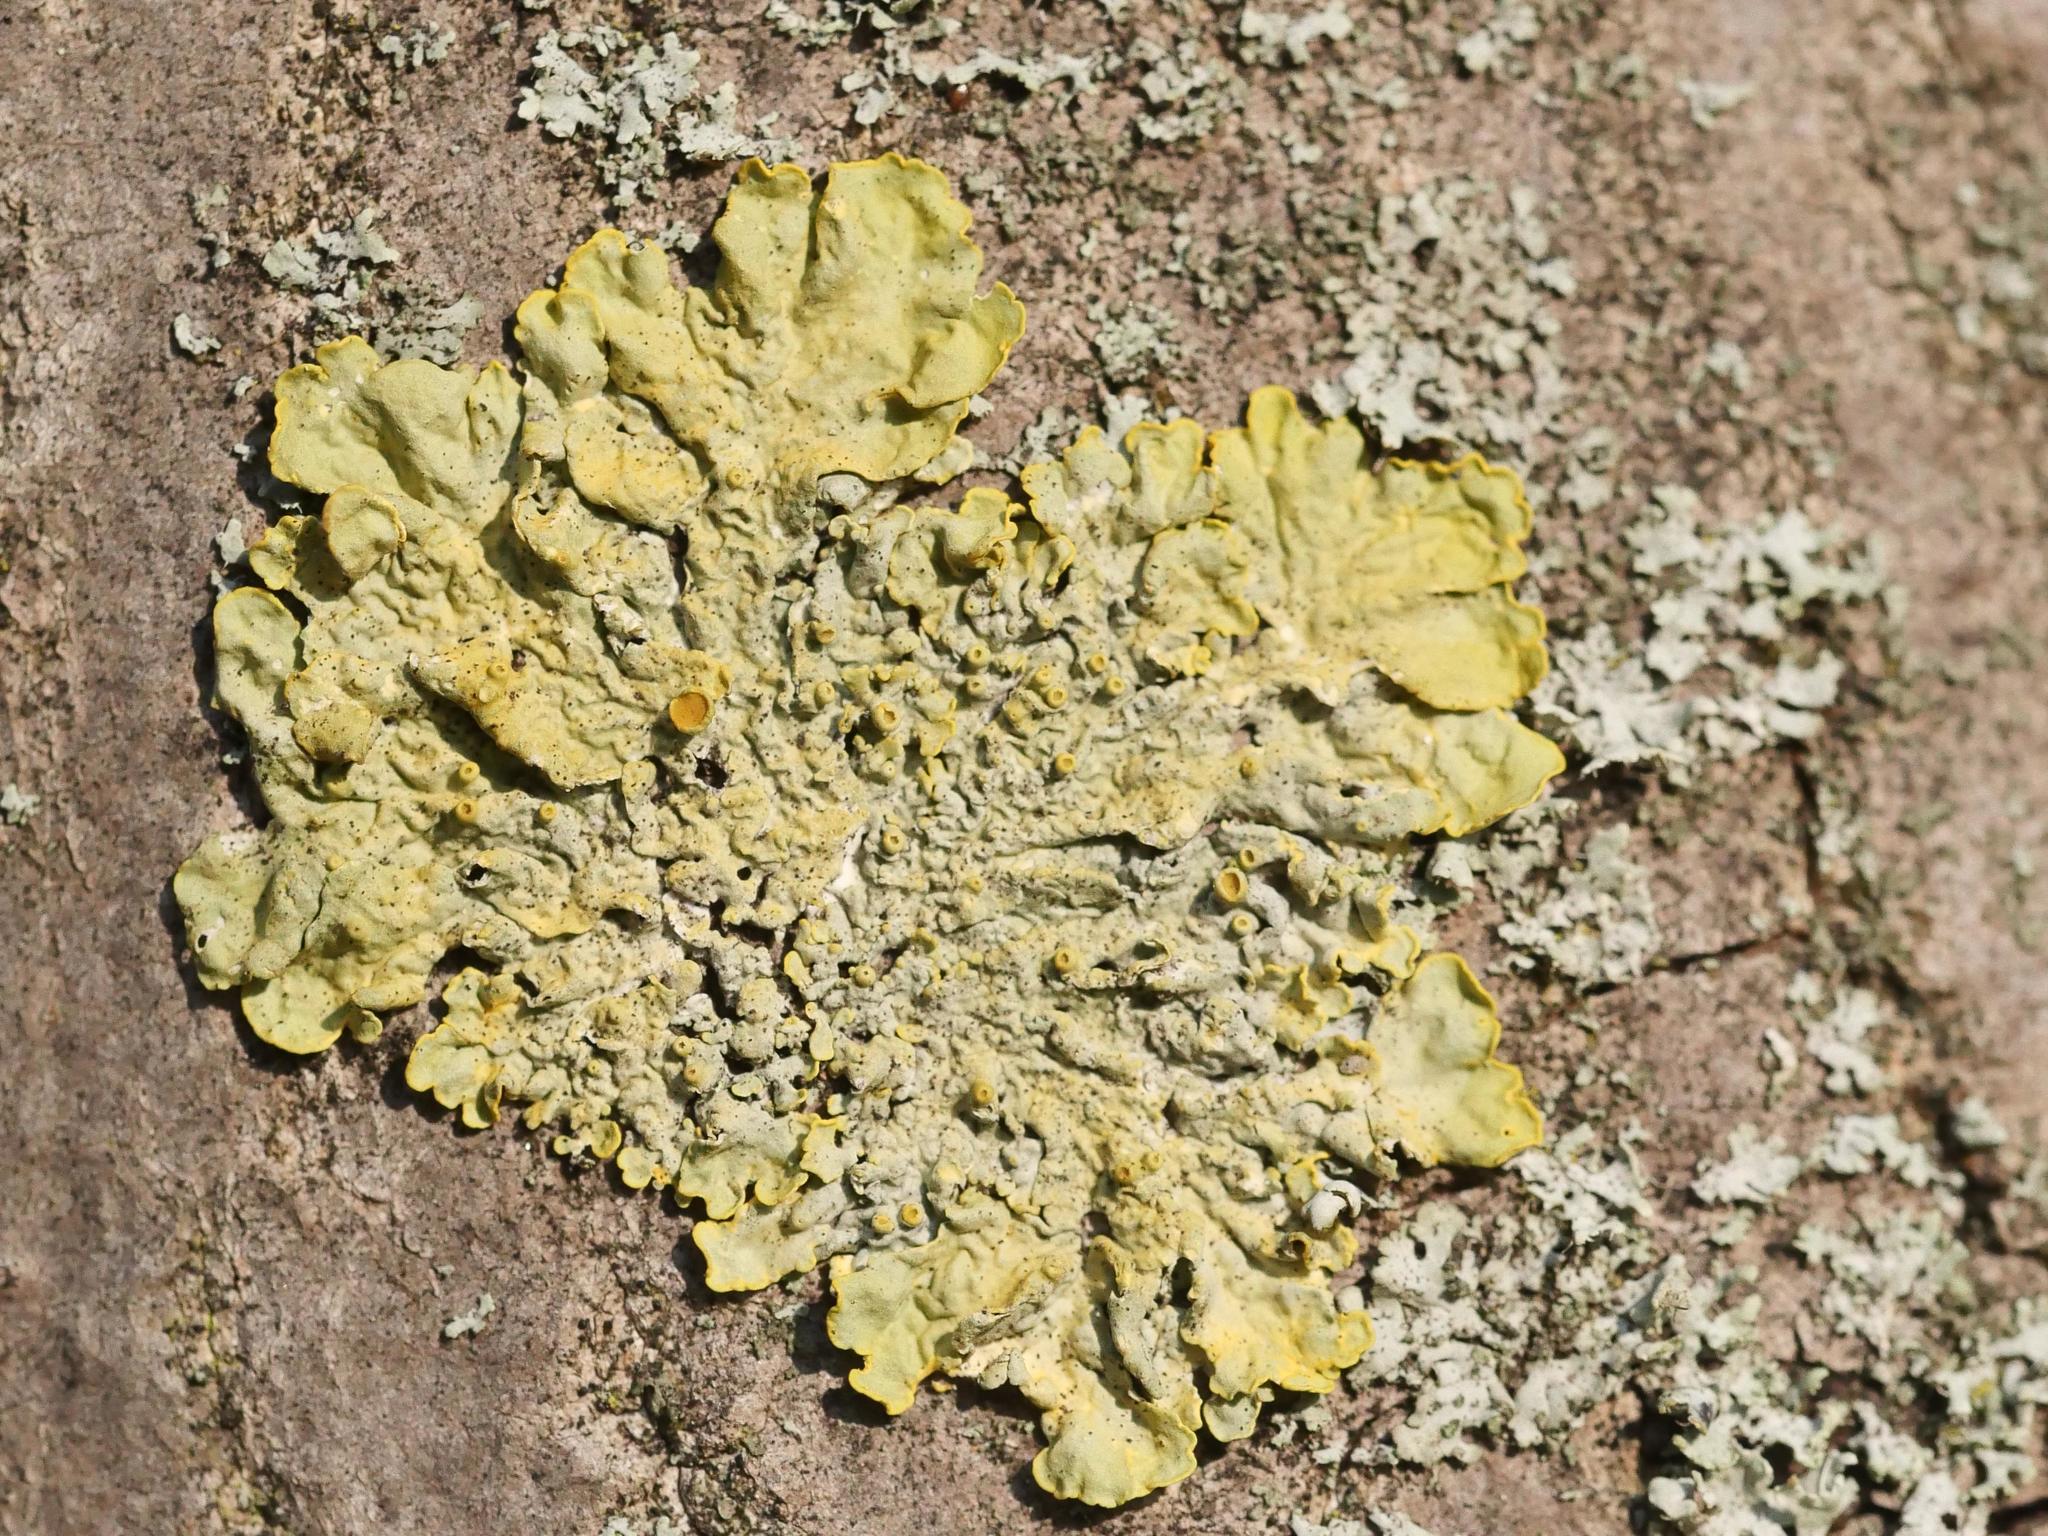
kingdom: Fungi
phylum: Ascomycota
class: Lecanoromycetes
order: Teloschistales
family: Teloschistaceae
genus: Xanthoria
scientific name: Xanthoria parietina
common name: Common orange lichen
